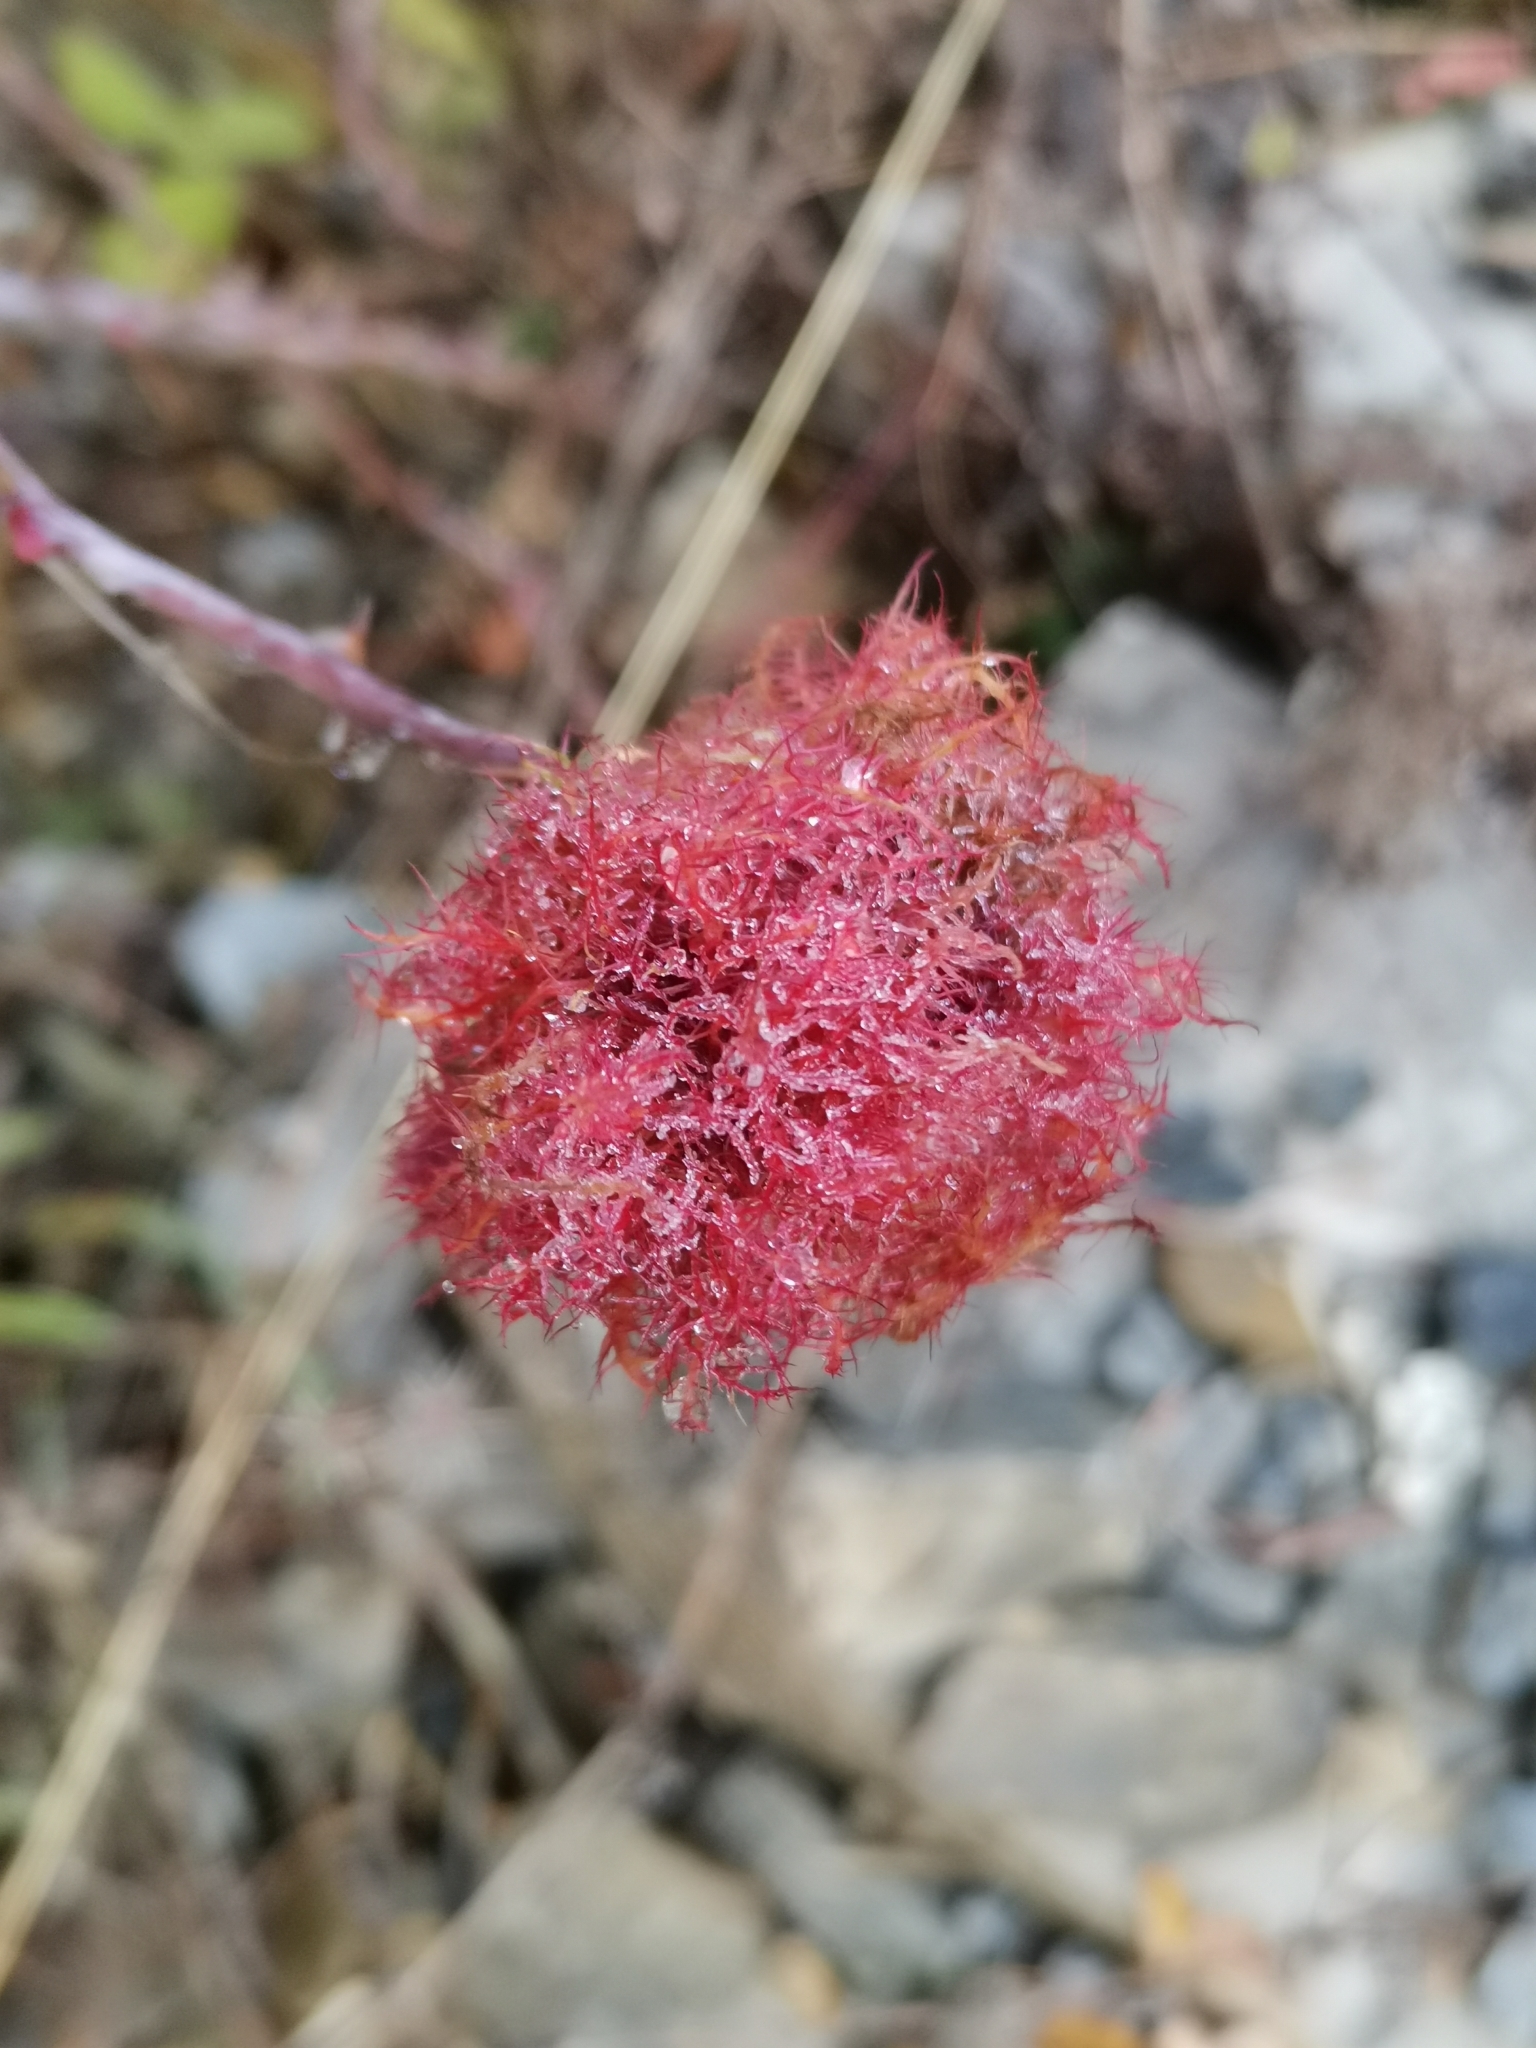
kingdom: Animalia
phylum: Arthropoda
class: Insecta
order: Hymenoptera
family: Cynipidae
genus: Diplolepis
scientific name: Diplolepis rosae
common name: Bedeguar gall
